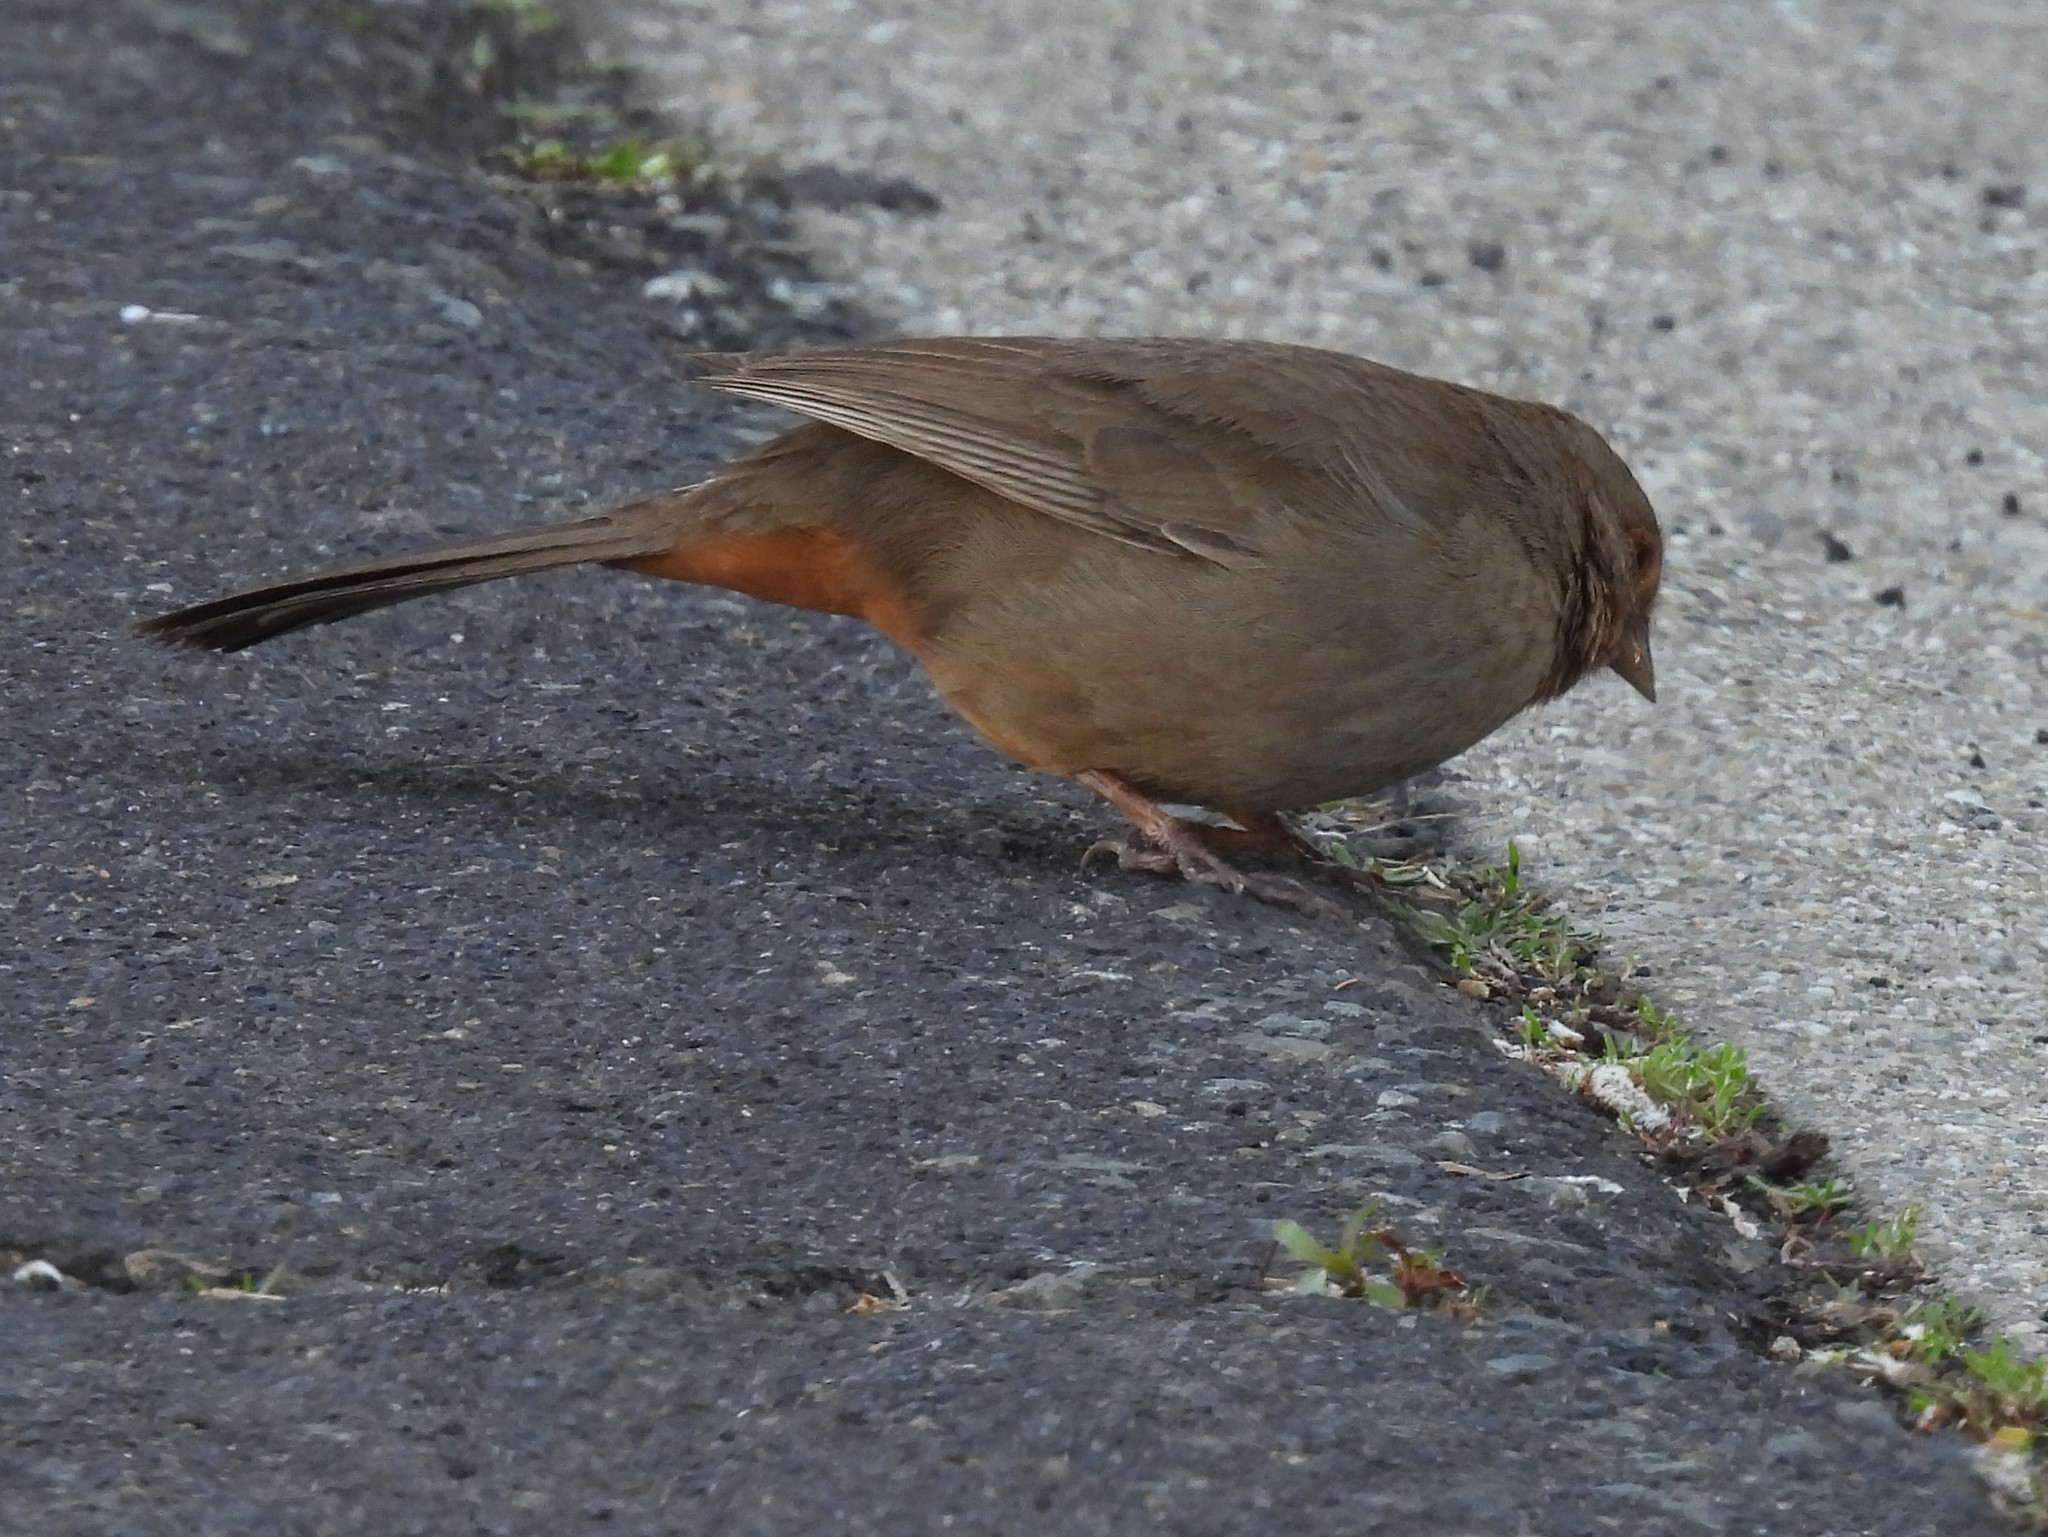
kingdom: Animalia
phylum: Chordata
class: Aves
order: Passeriformes
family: Passerellidae
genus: Melozone
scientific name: Melozone crissalis
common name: California towhee
